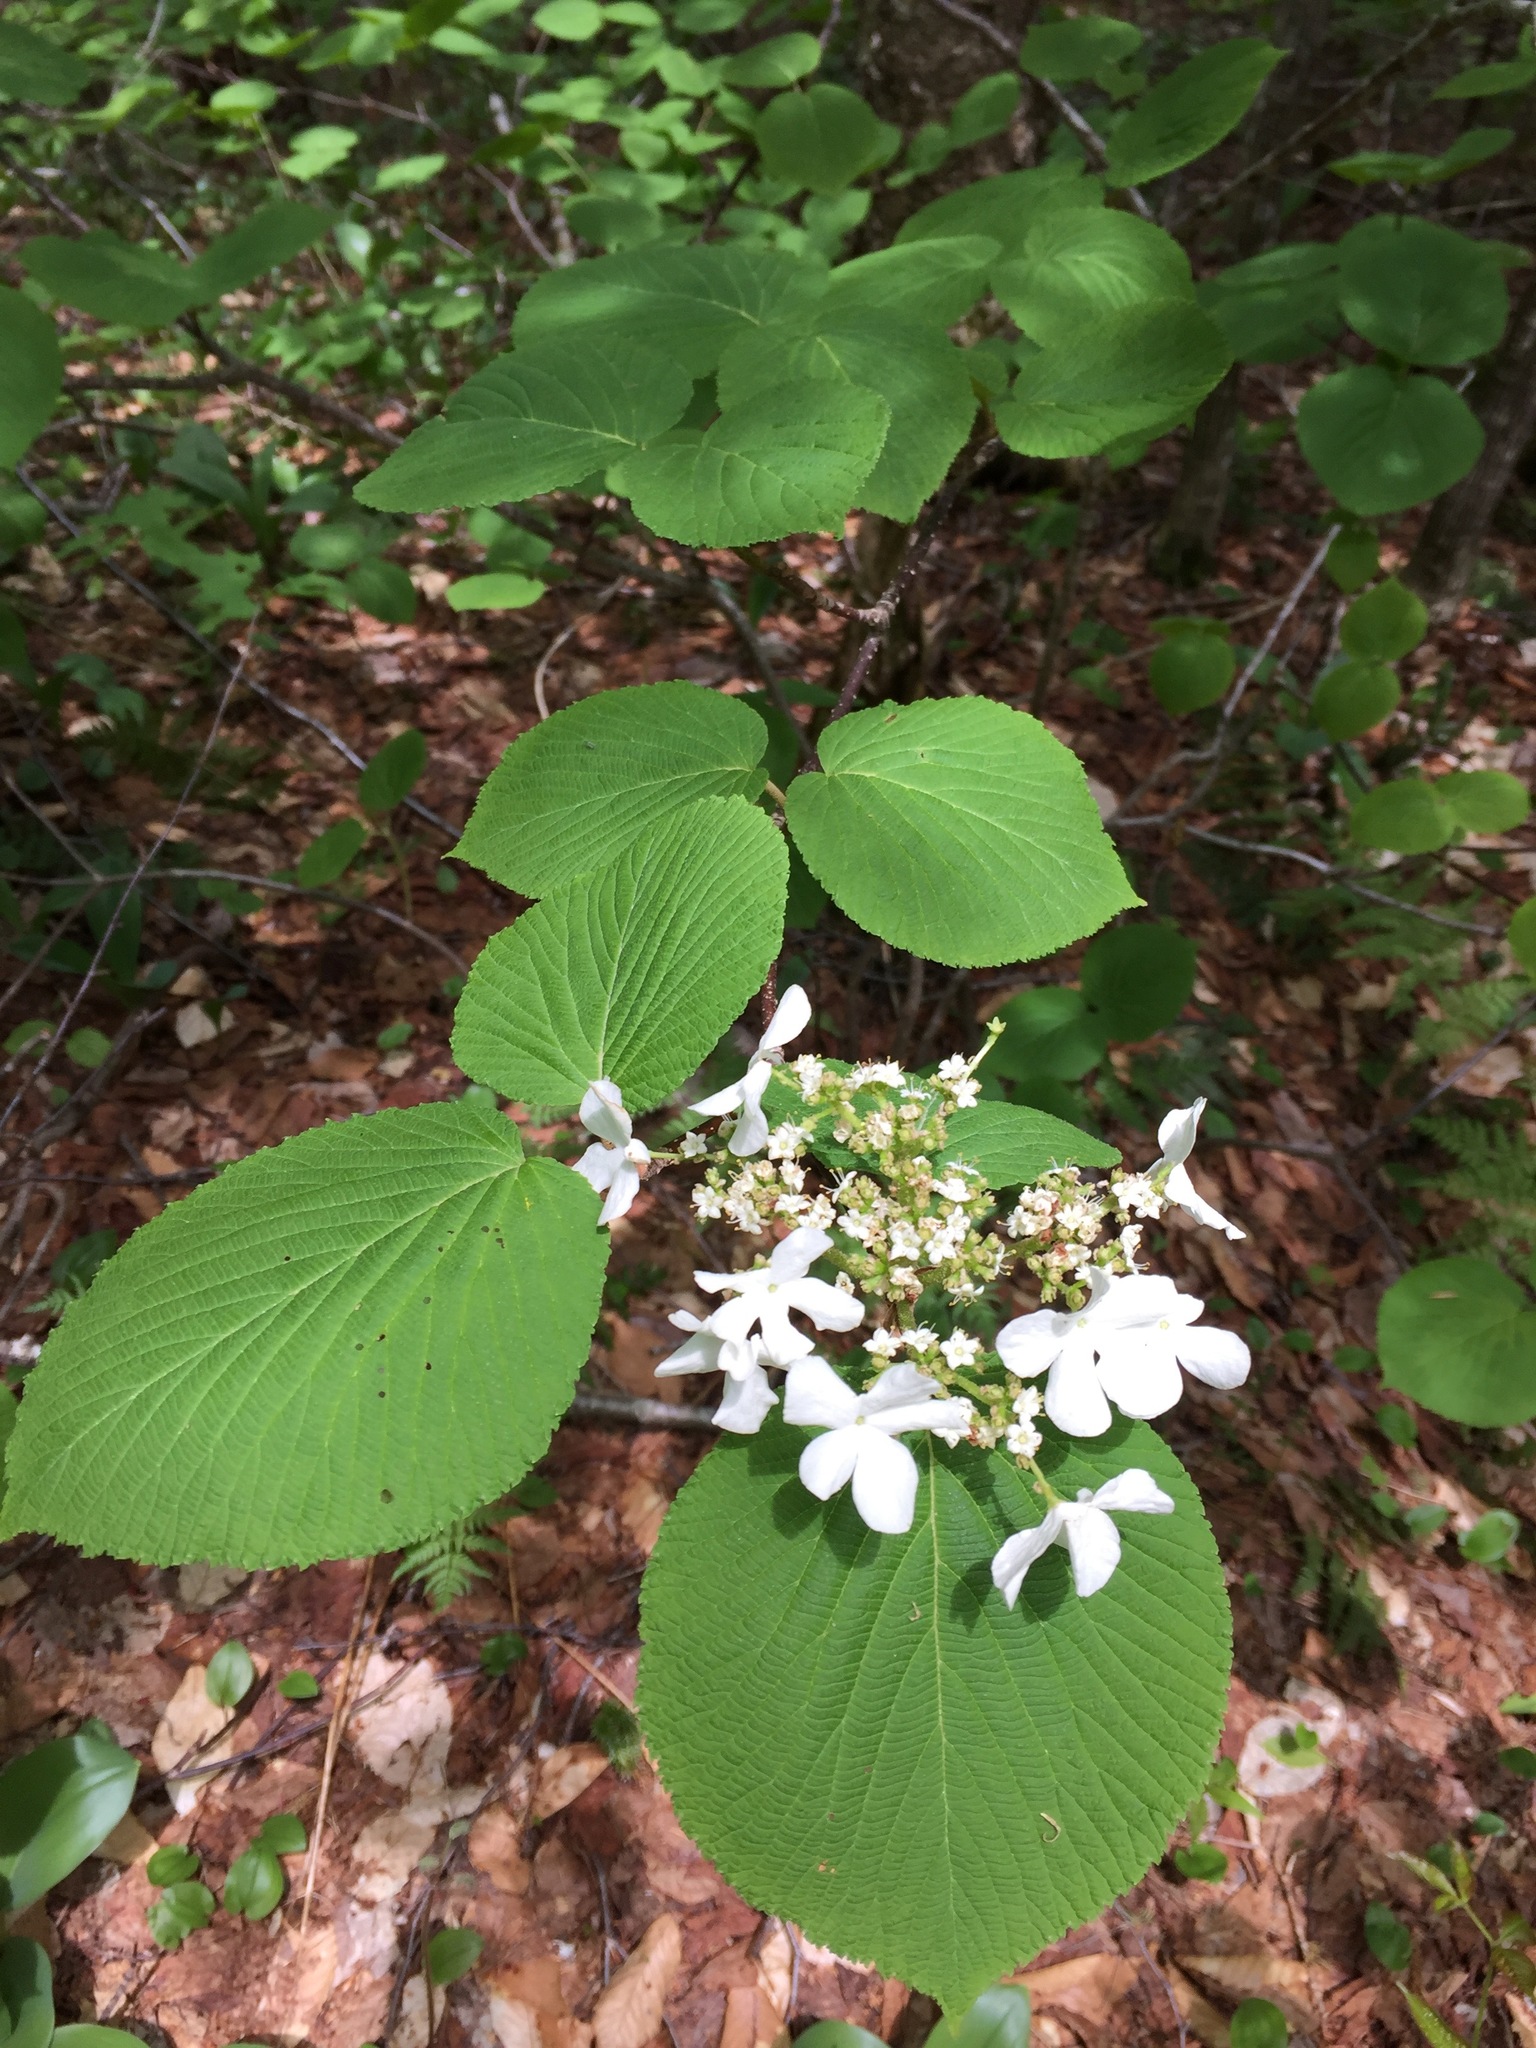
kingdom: Plantae
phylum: Tracheophyta
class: Magnoliopsida
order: Dipsacales
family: Viburnaceae
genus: Viburnum
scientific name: Viburnum lantanoides
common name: Hobblebush
